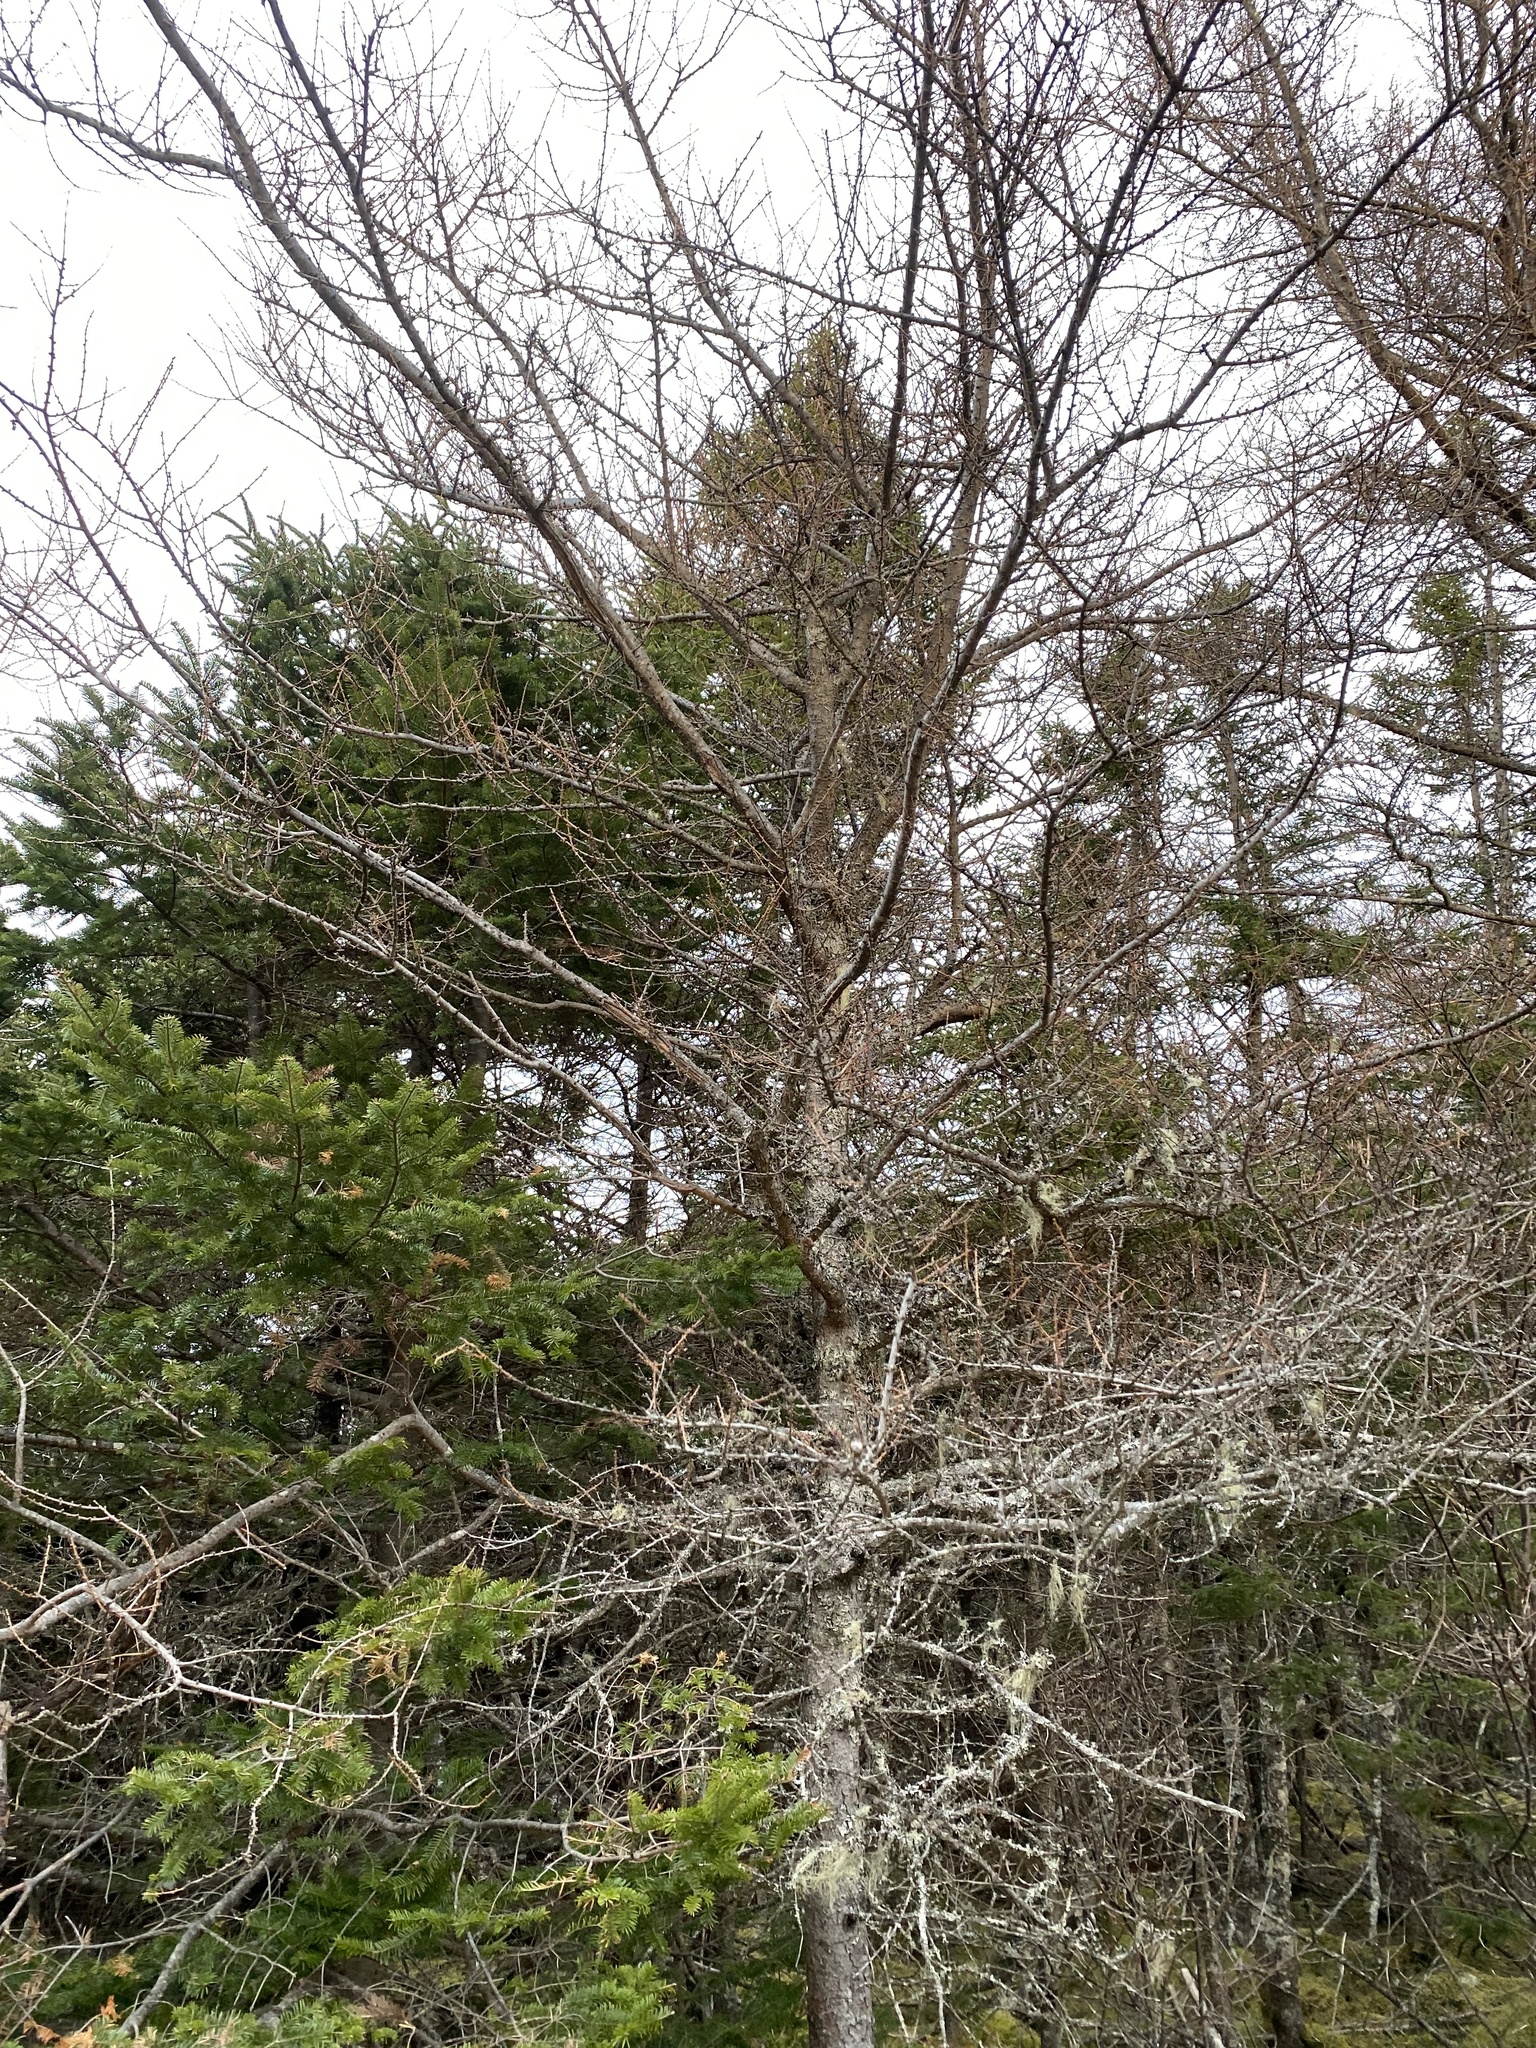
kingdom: Plantae
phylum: Tracheophyta
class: Pinopsida
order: Pinales
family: Pinaceae
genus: Larix
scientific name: Larix laricina
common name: American larch
